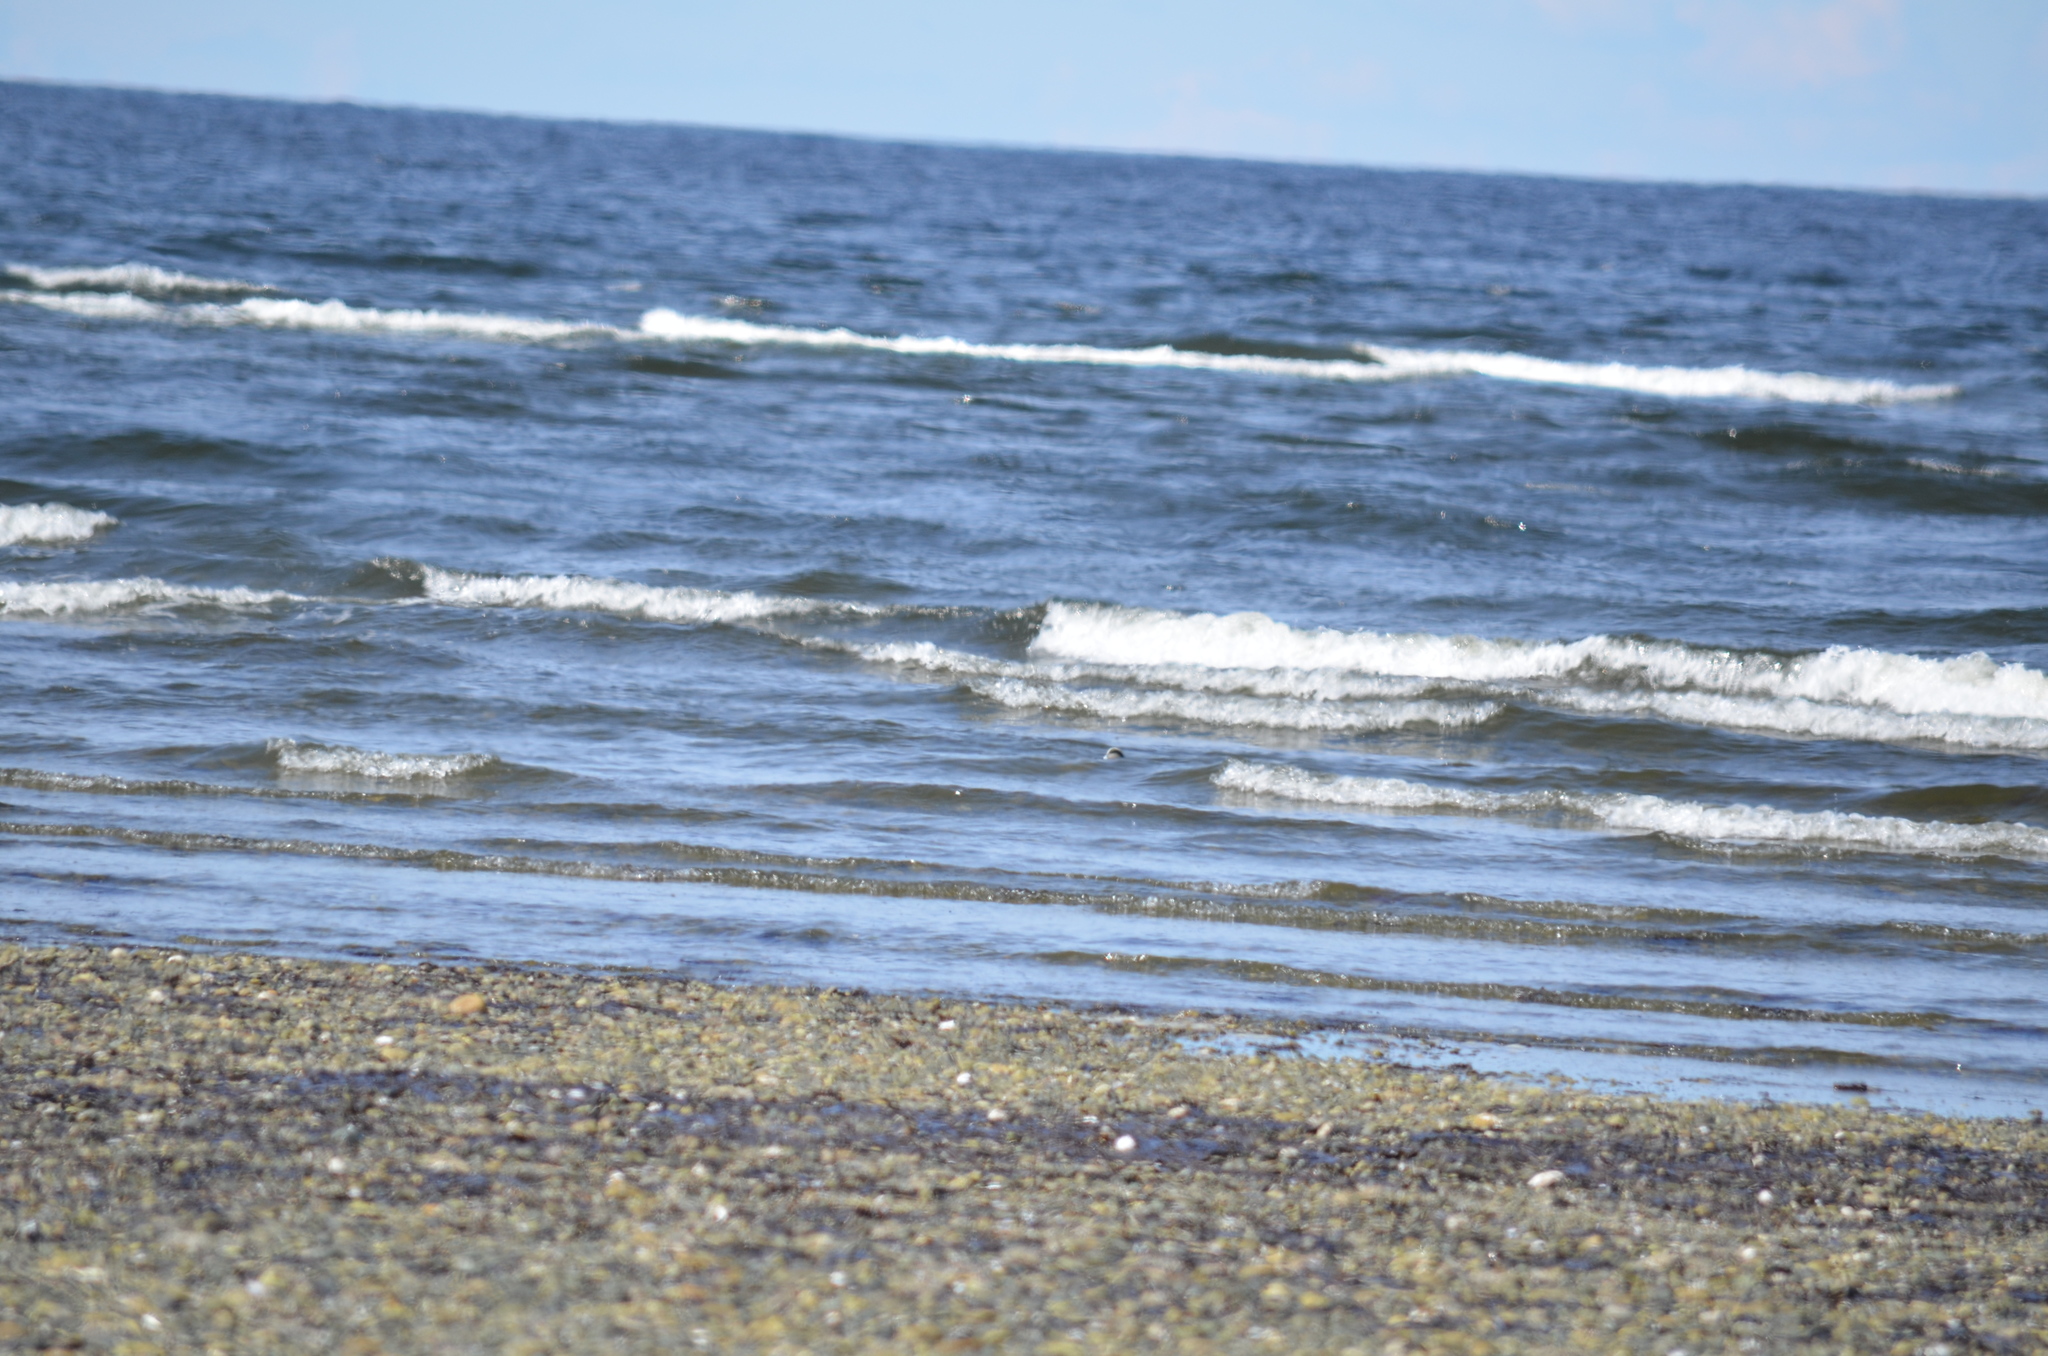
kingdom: Animalia
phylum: Chordata
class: Aves
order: Anseriformes
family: Anatidae
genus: Mareca
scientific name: Mareca americana
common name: American wigeon
